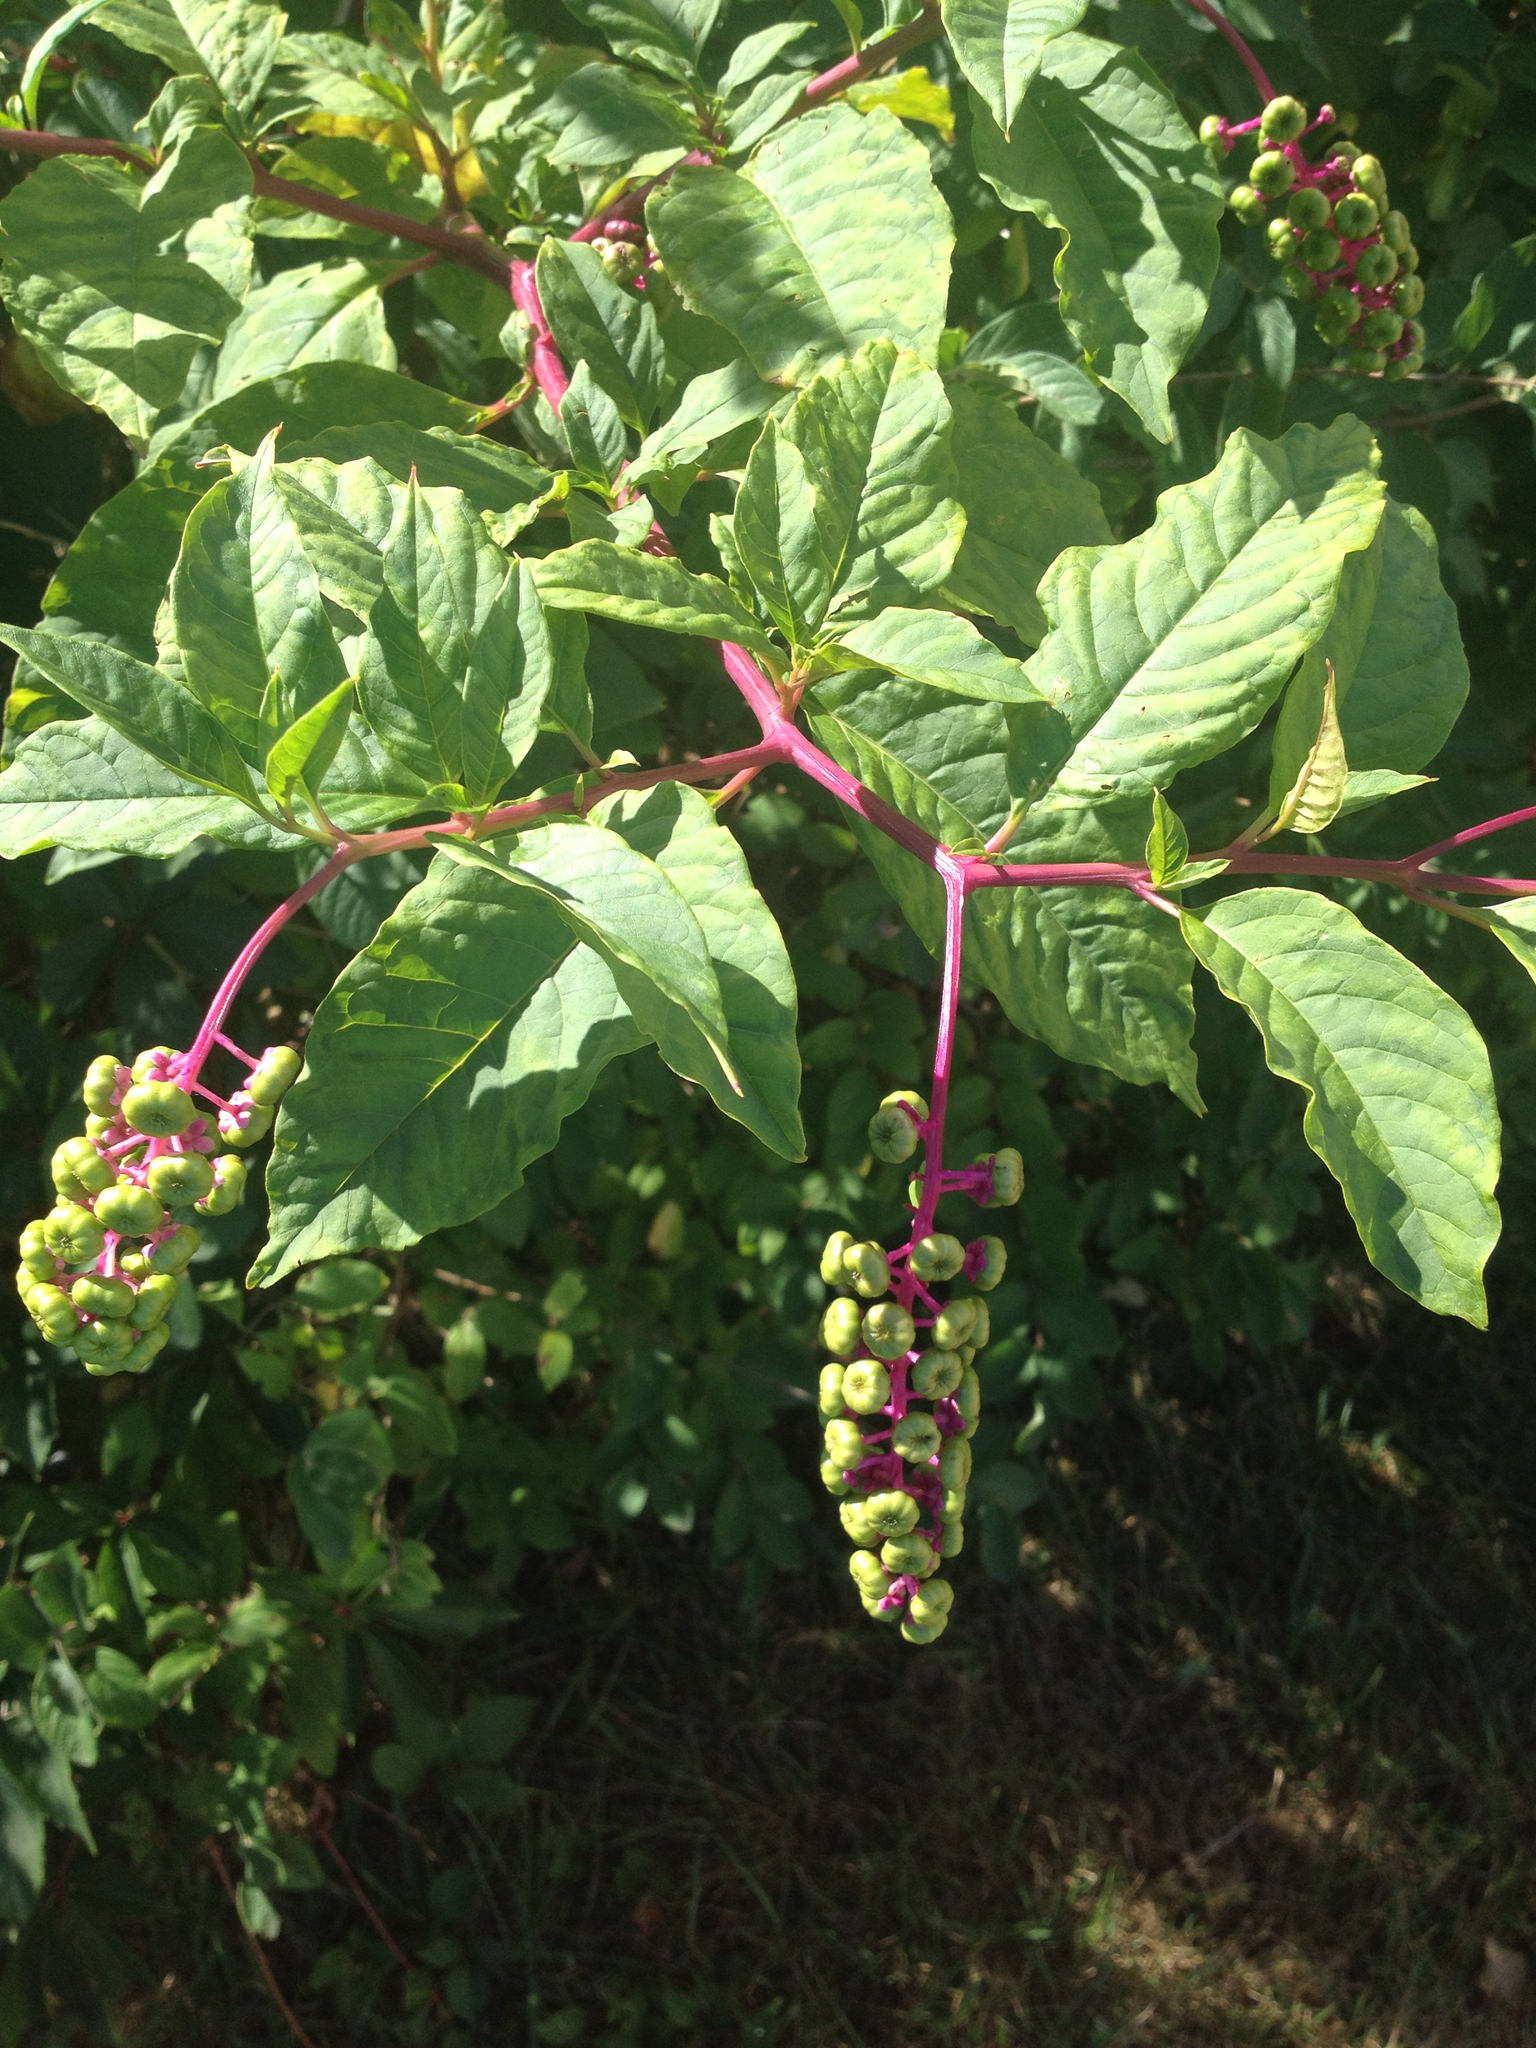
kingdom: Plantae
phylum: Tracheophyta
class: Magnoliopsida
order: Caryophyllales
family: Phytolaccaceae
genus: Phytolacca
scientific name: Phytolacca americana
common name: American pokeweed
